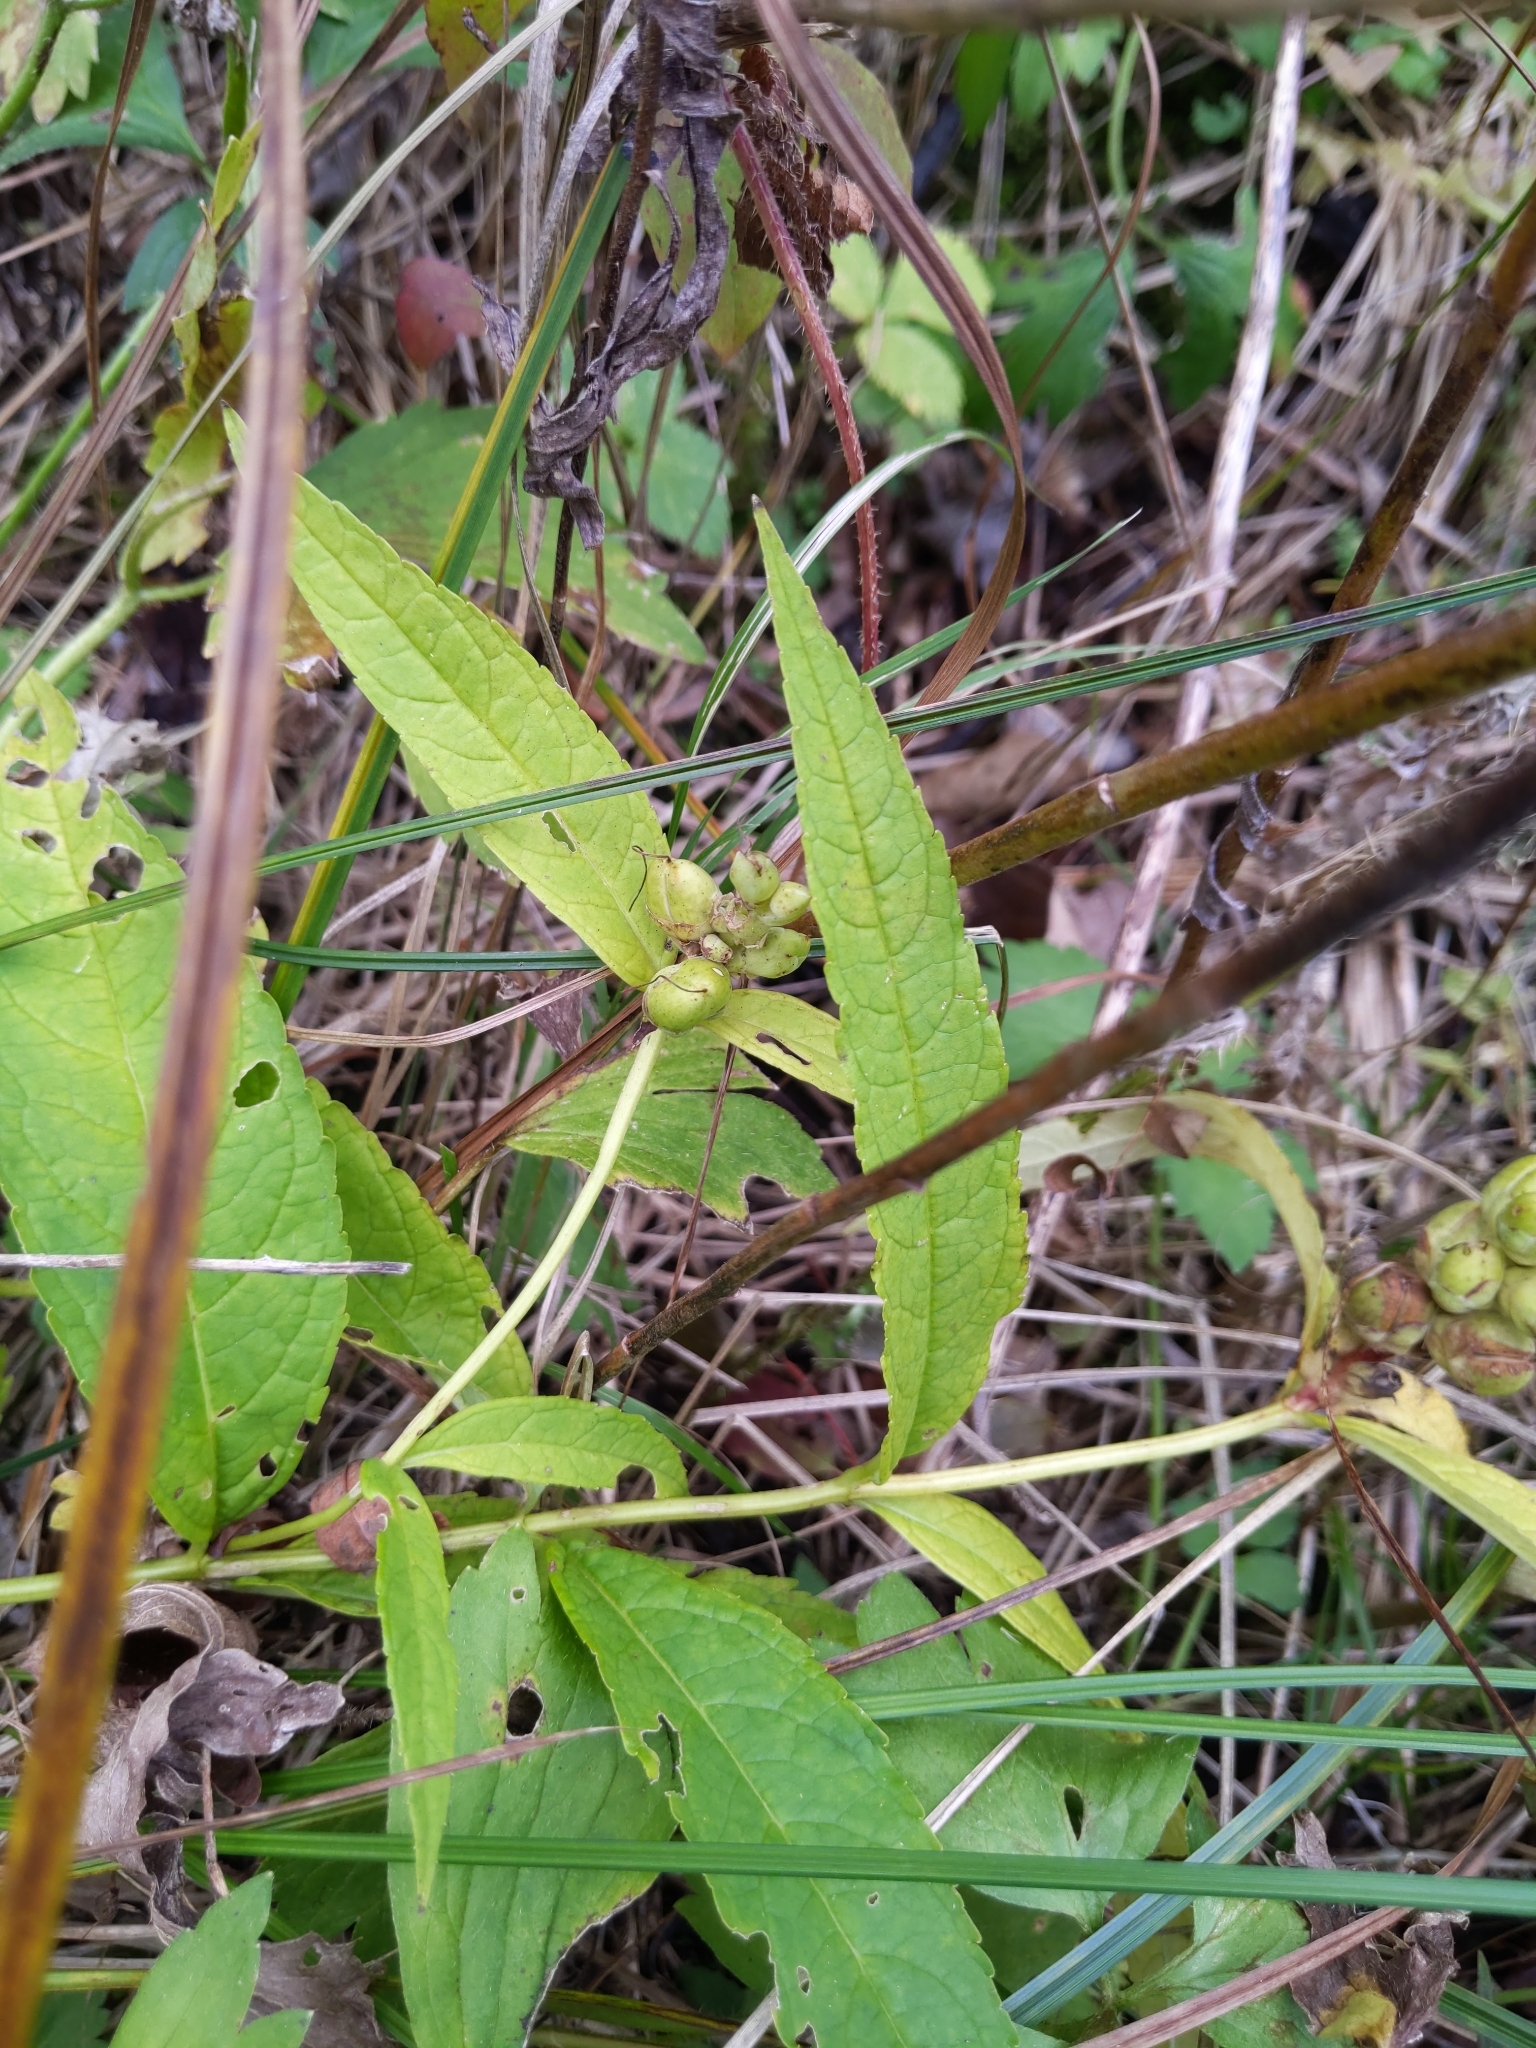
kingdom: Plantae
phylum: Tracheophyta
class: Magnoliopsida
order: Lamiales
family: Plantaginaceae
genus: Chelone
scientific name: Chelone glabra
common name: Snakehead
